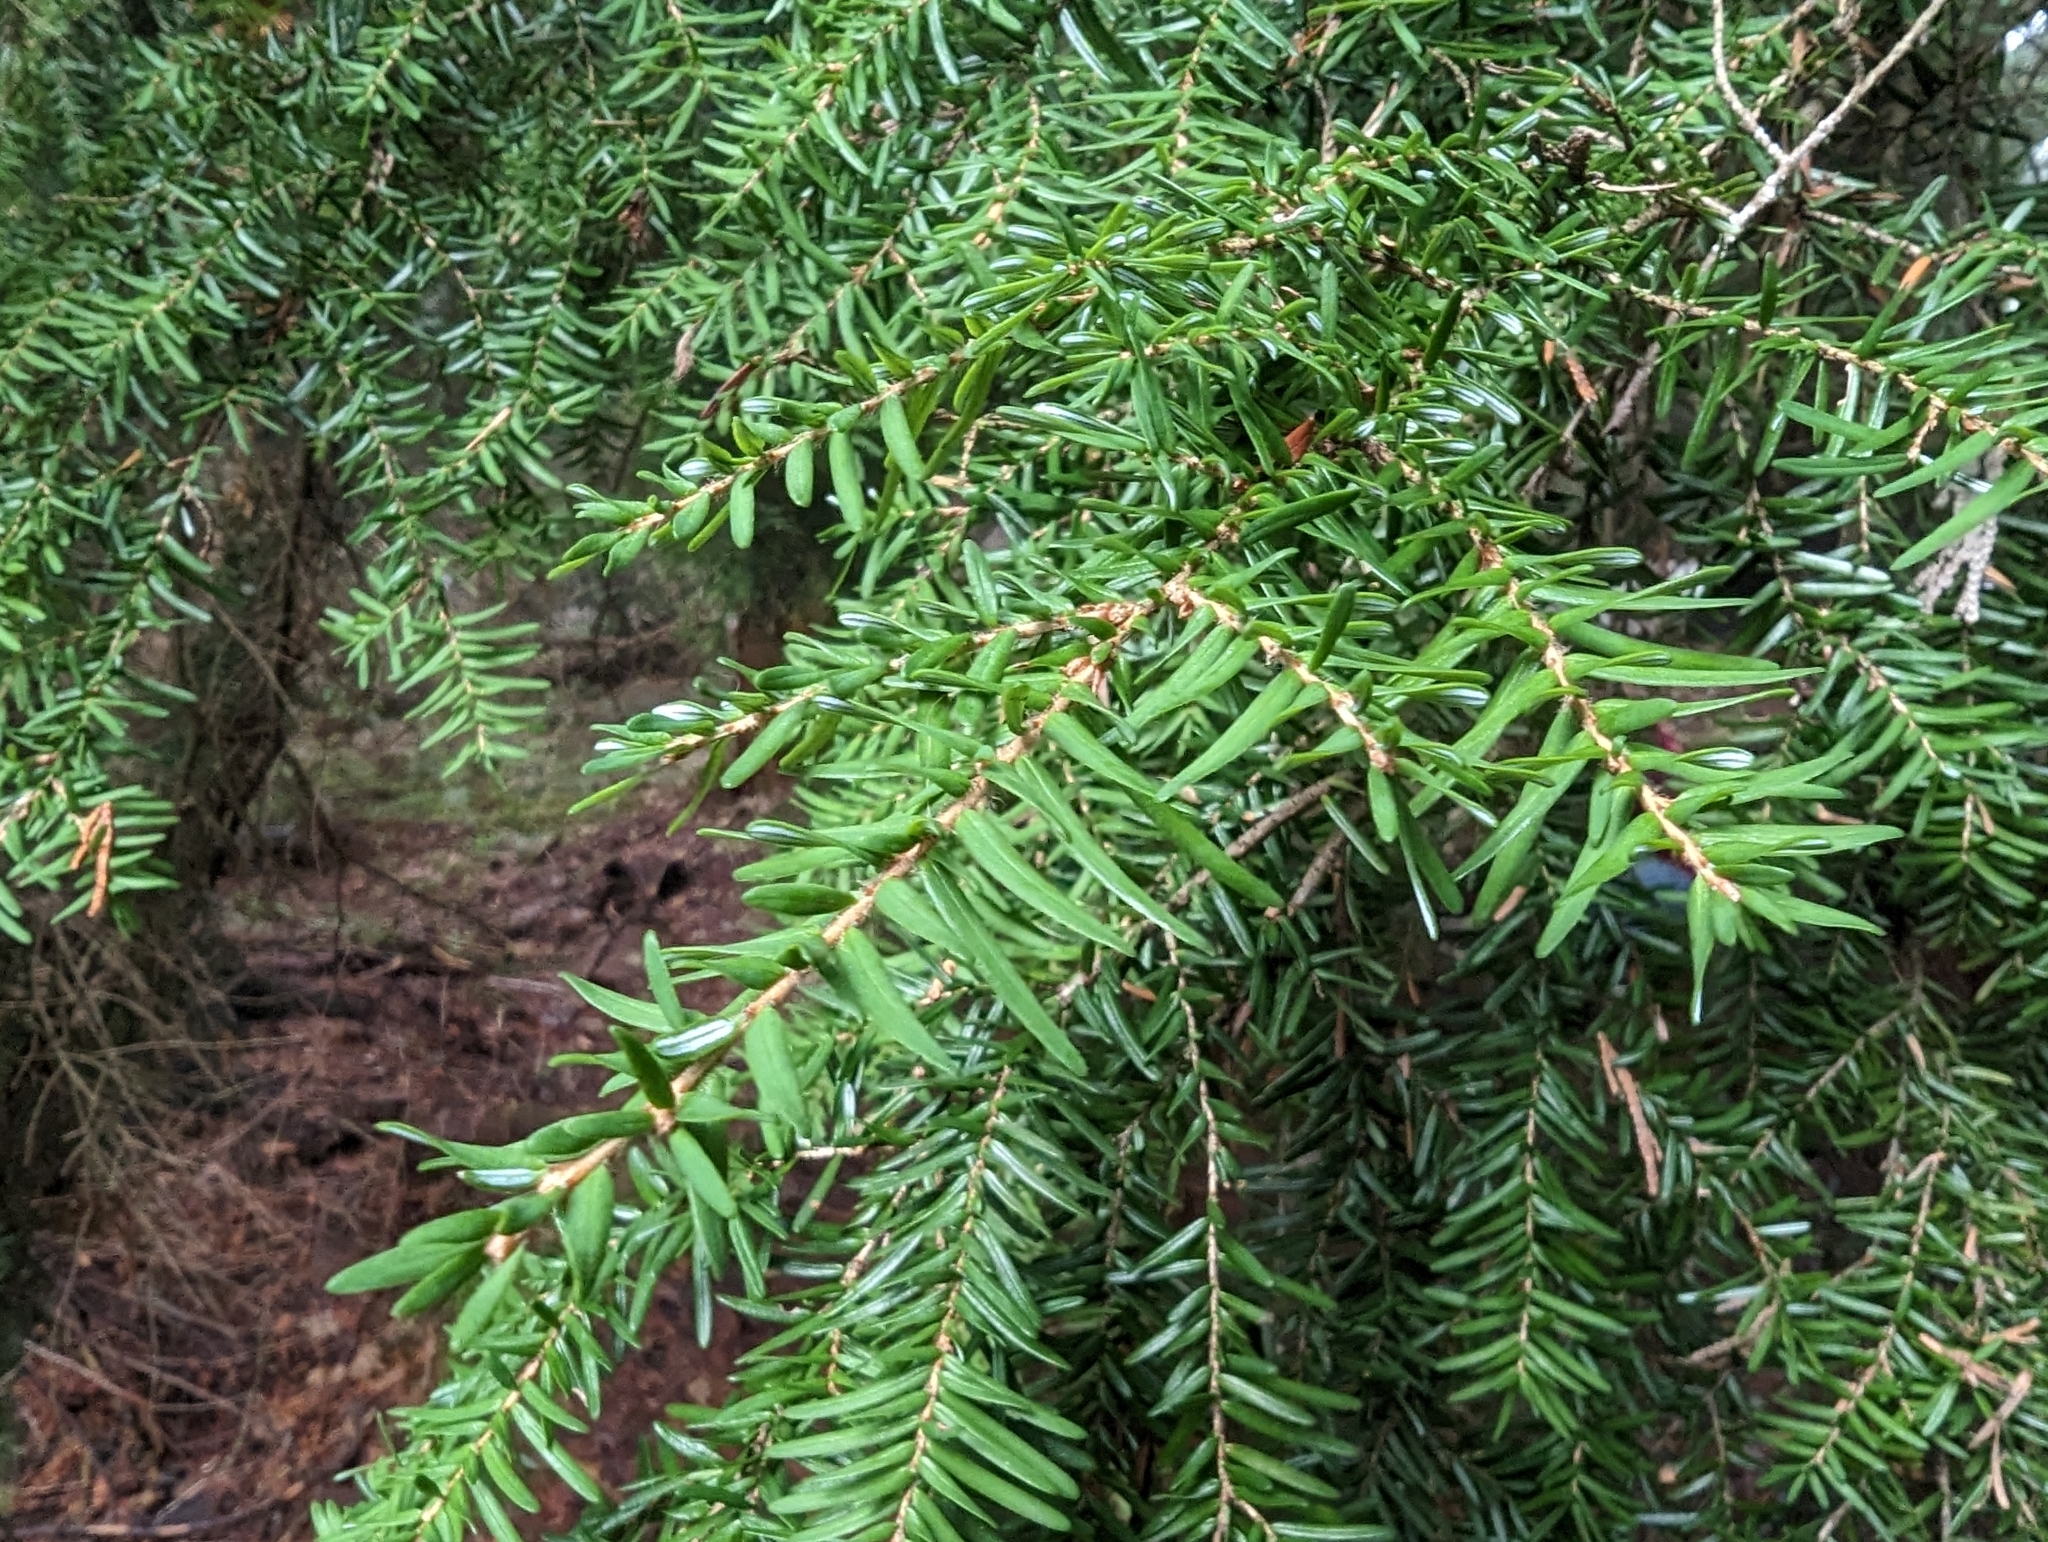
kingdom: Plantae
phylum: Tracheophyta
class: Pinopsida
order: Pinales
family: Pinaceae
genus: Tsuga
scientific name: Tsuga heterophylla
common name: Western hemlock
